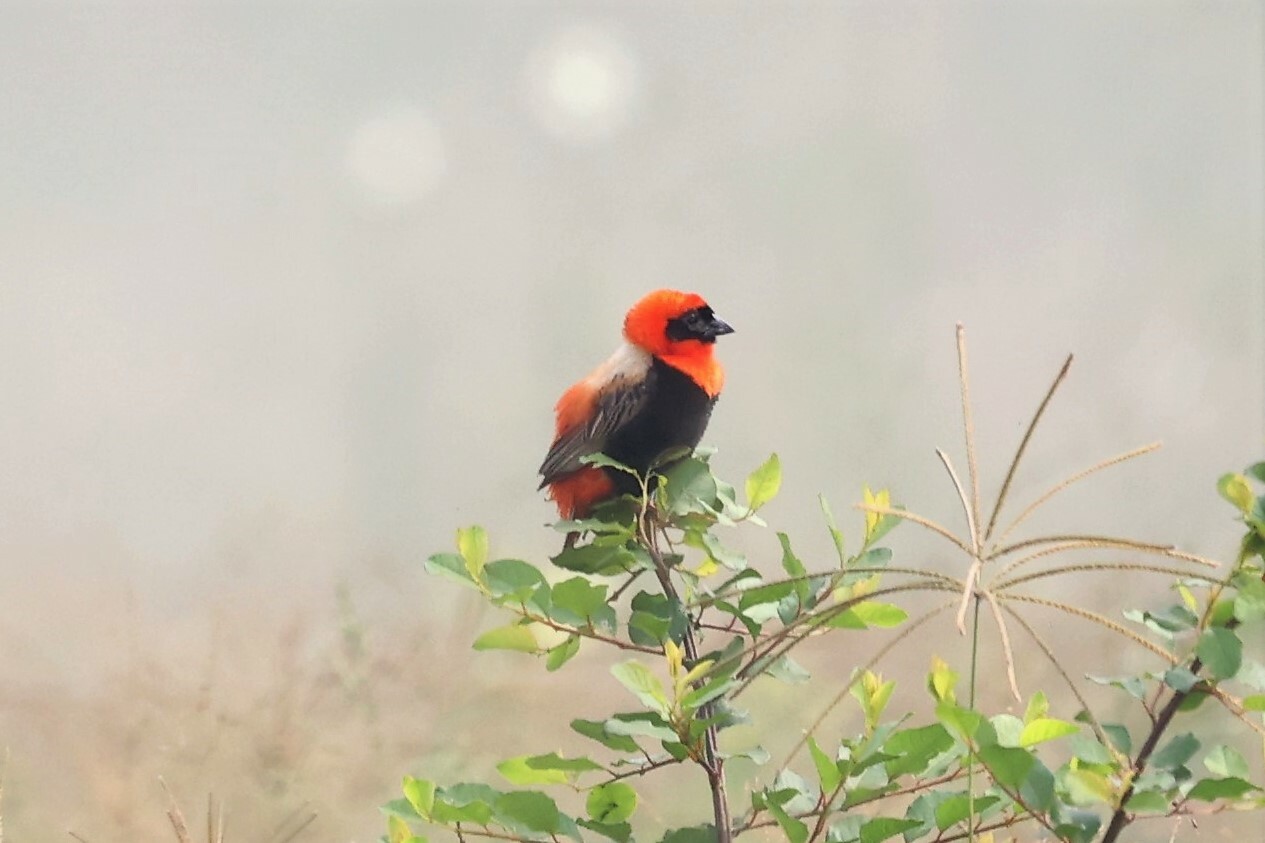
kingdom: Animalia
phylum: Chordata
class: Aves
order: Passeriformes
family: Ploceidae
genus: Euplectes
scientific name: Euplectes orix
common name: Southern red bishop
